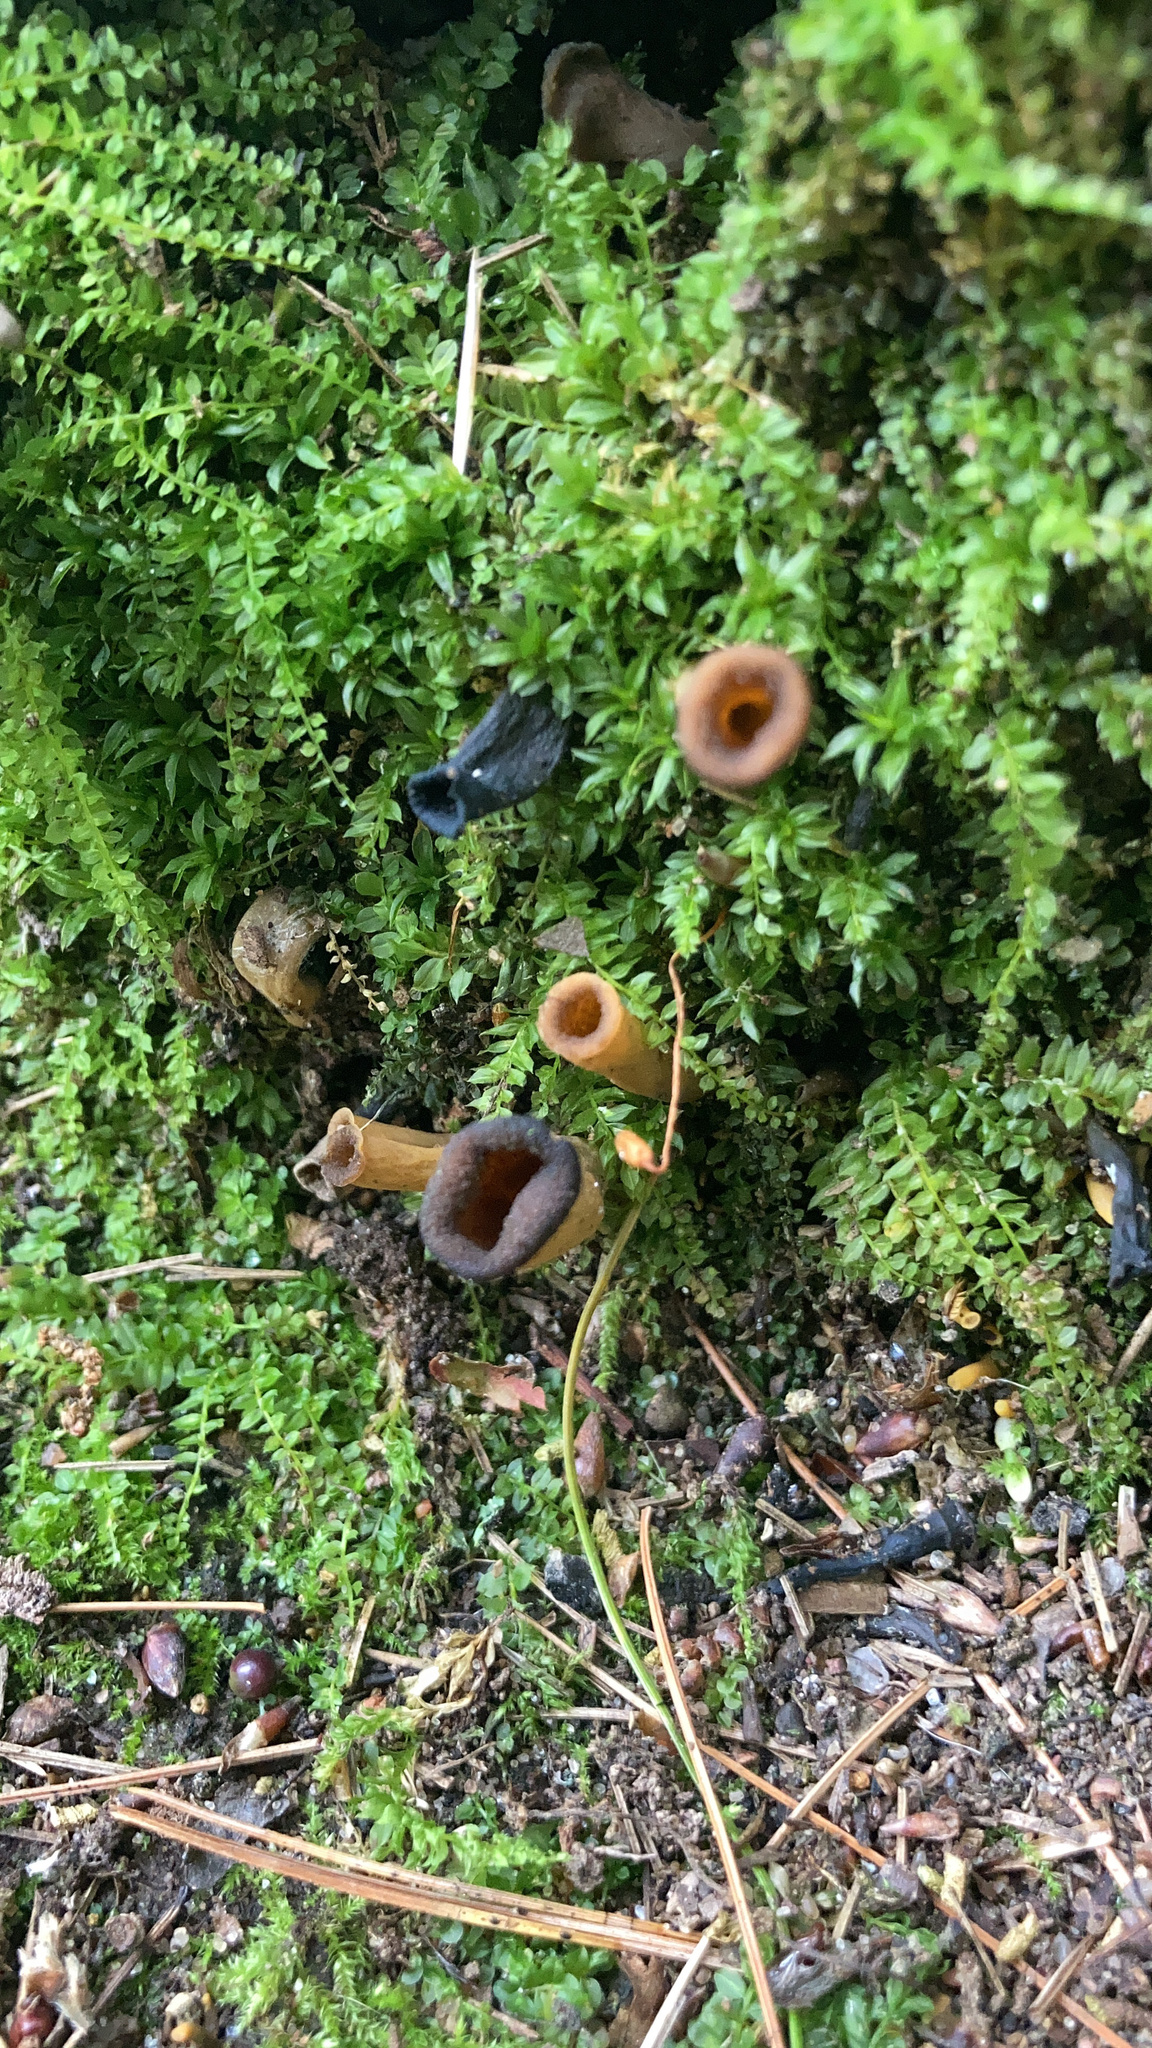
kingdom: Fungi
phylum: Basidiomycota
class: Agaricomycetes
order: Cantharellales
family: Hydnaceae
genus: Craterellus
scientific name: Craterellus cornucopioides
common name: Horn of plenty
